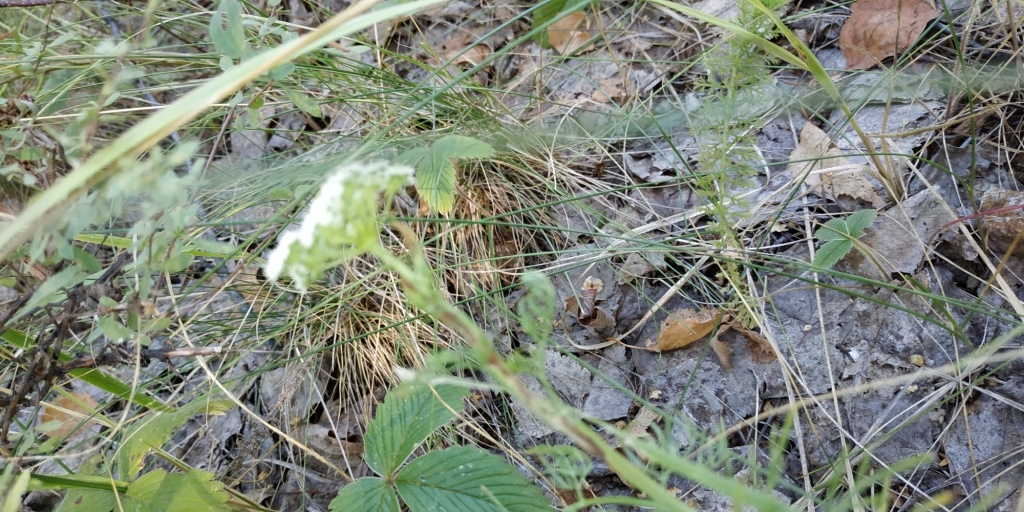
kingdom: Plantae
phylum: Tracheophyta
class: Magnoliopsida
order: Apiales
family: Apiaceae
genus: Kadenia
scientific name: Kadenia dubia
